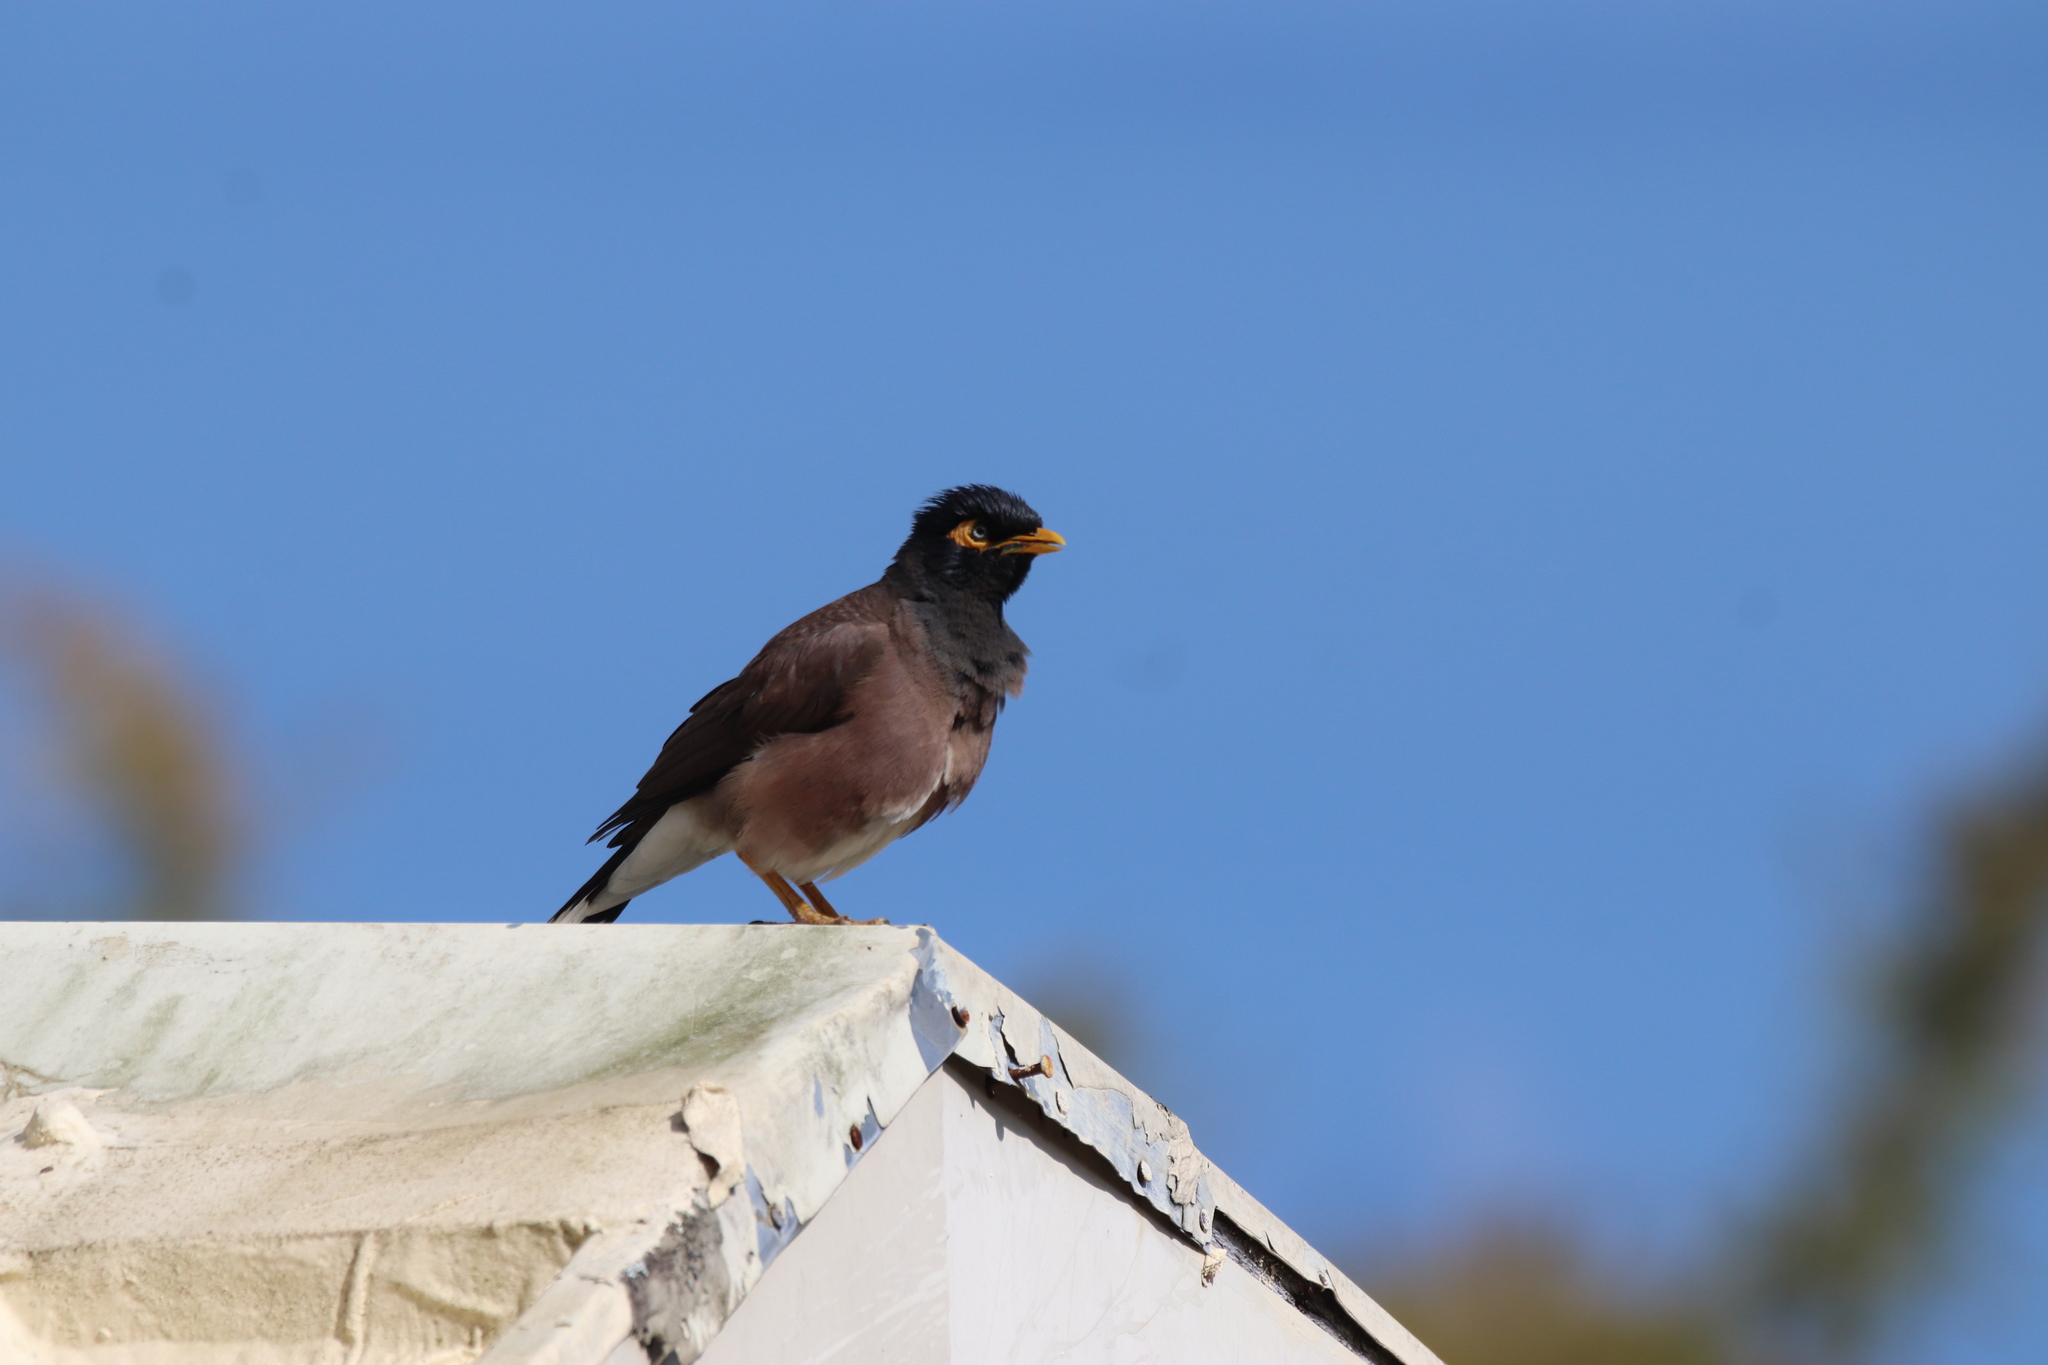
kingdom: Animalia
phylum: Chordata
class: Aves
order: Passeriformes
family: Sturnidae
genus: Acridotheres
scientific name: Acridotheres tristis
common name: Common myna
